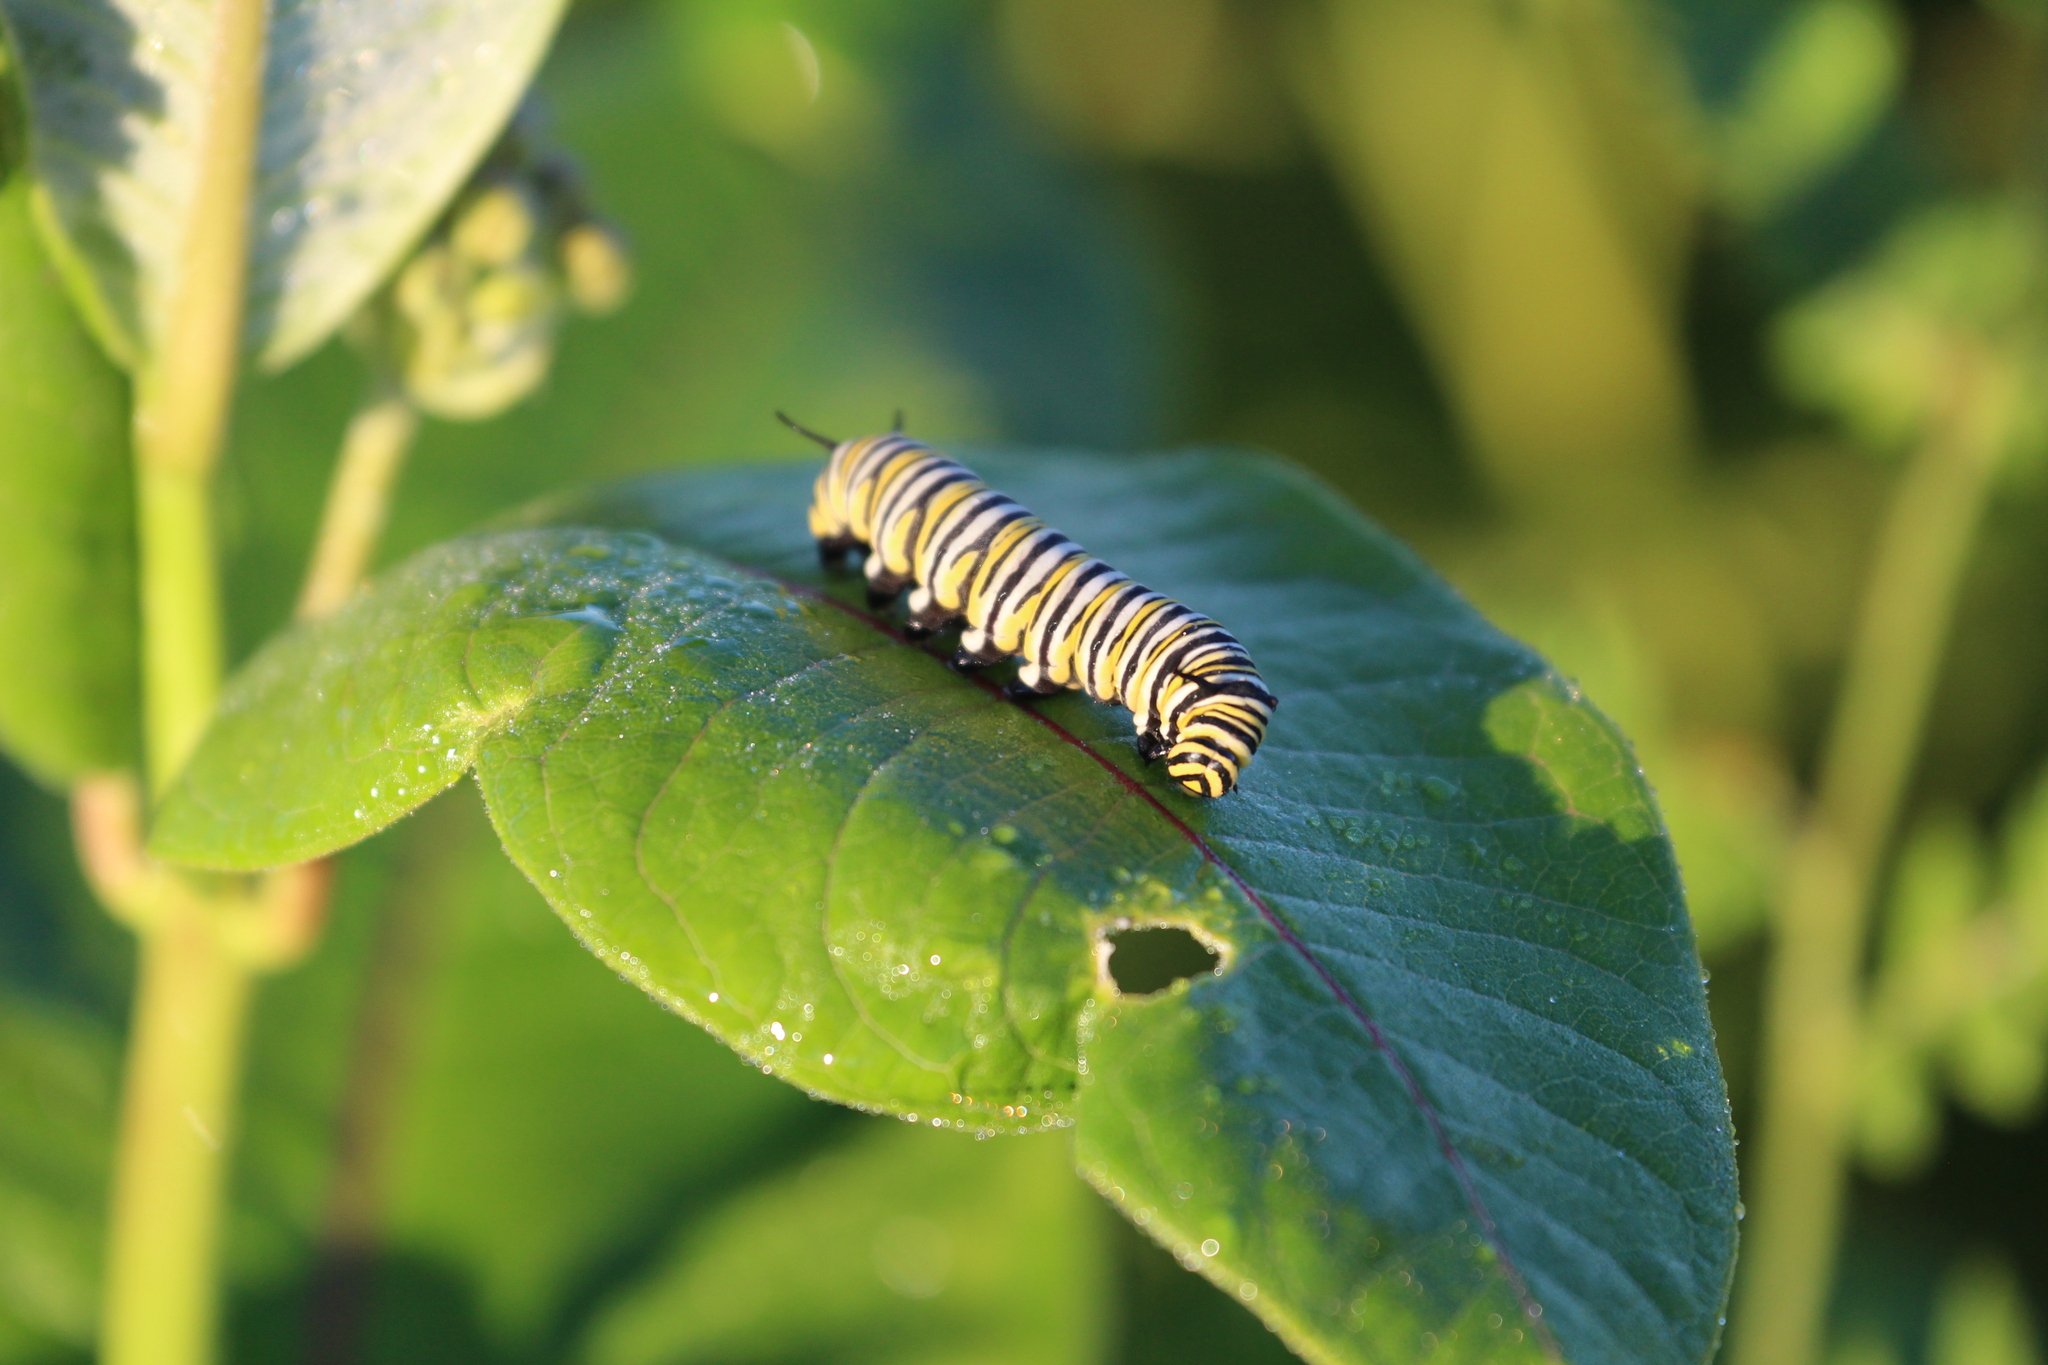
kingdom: Animalia
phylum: Arthropoda
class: Insecta
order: Lepidoptera
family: Nymphalidae
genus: Danaus
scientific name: Danaus plexippus
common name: Monarch
